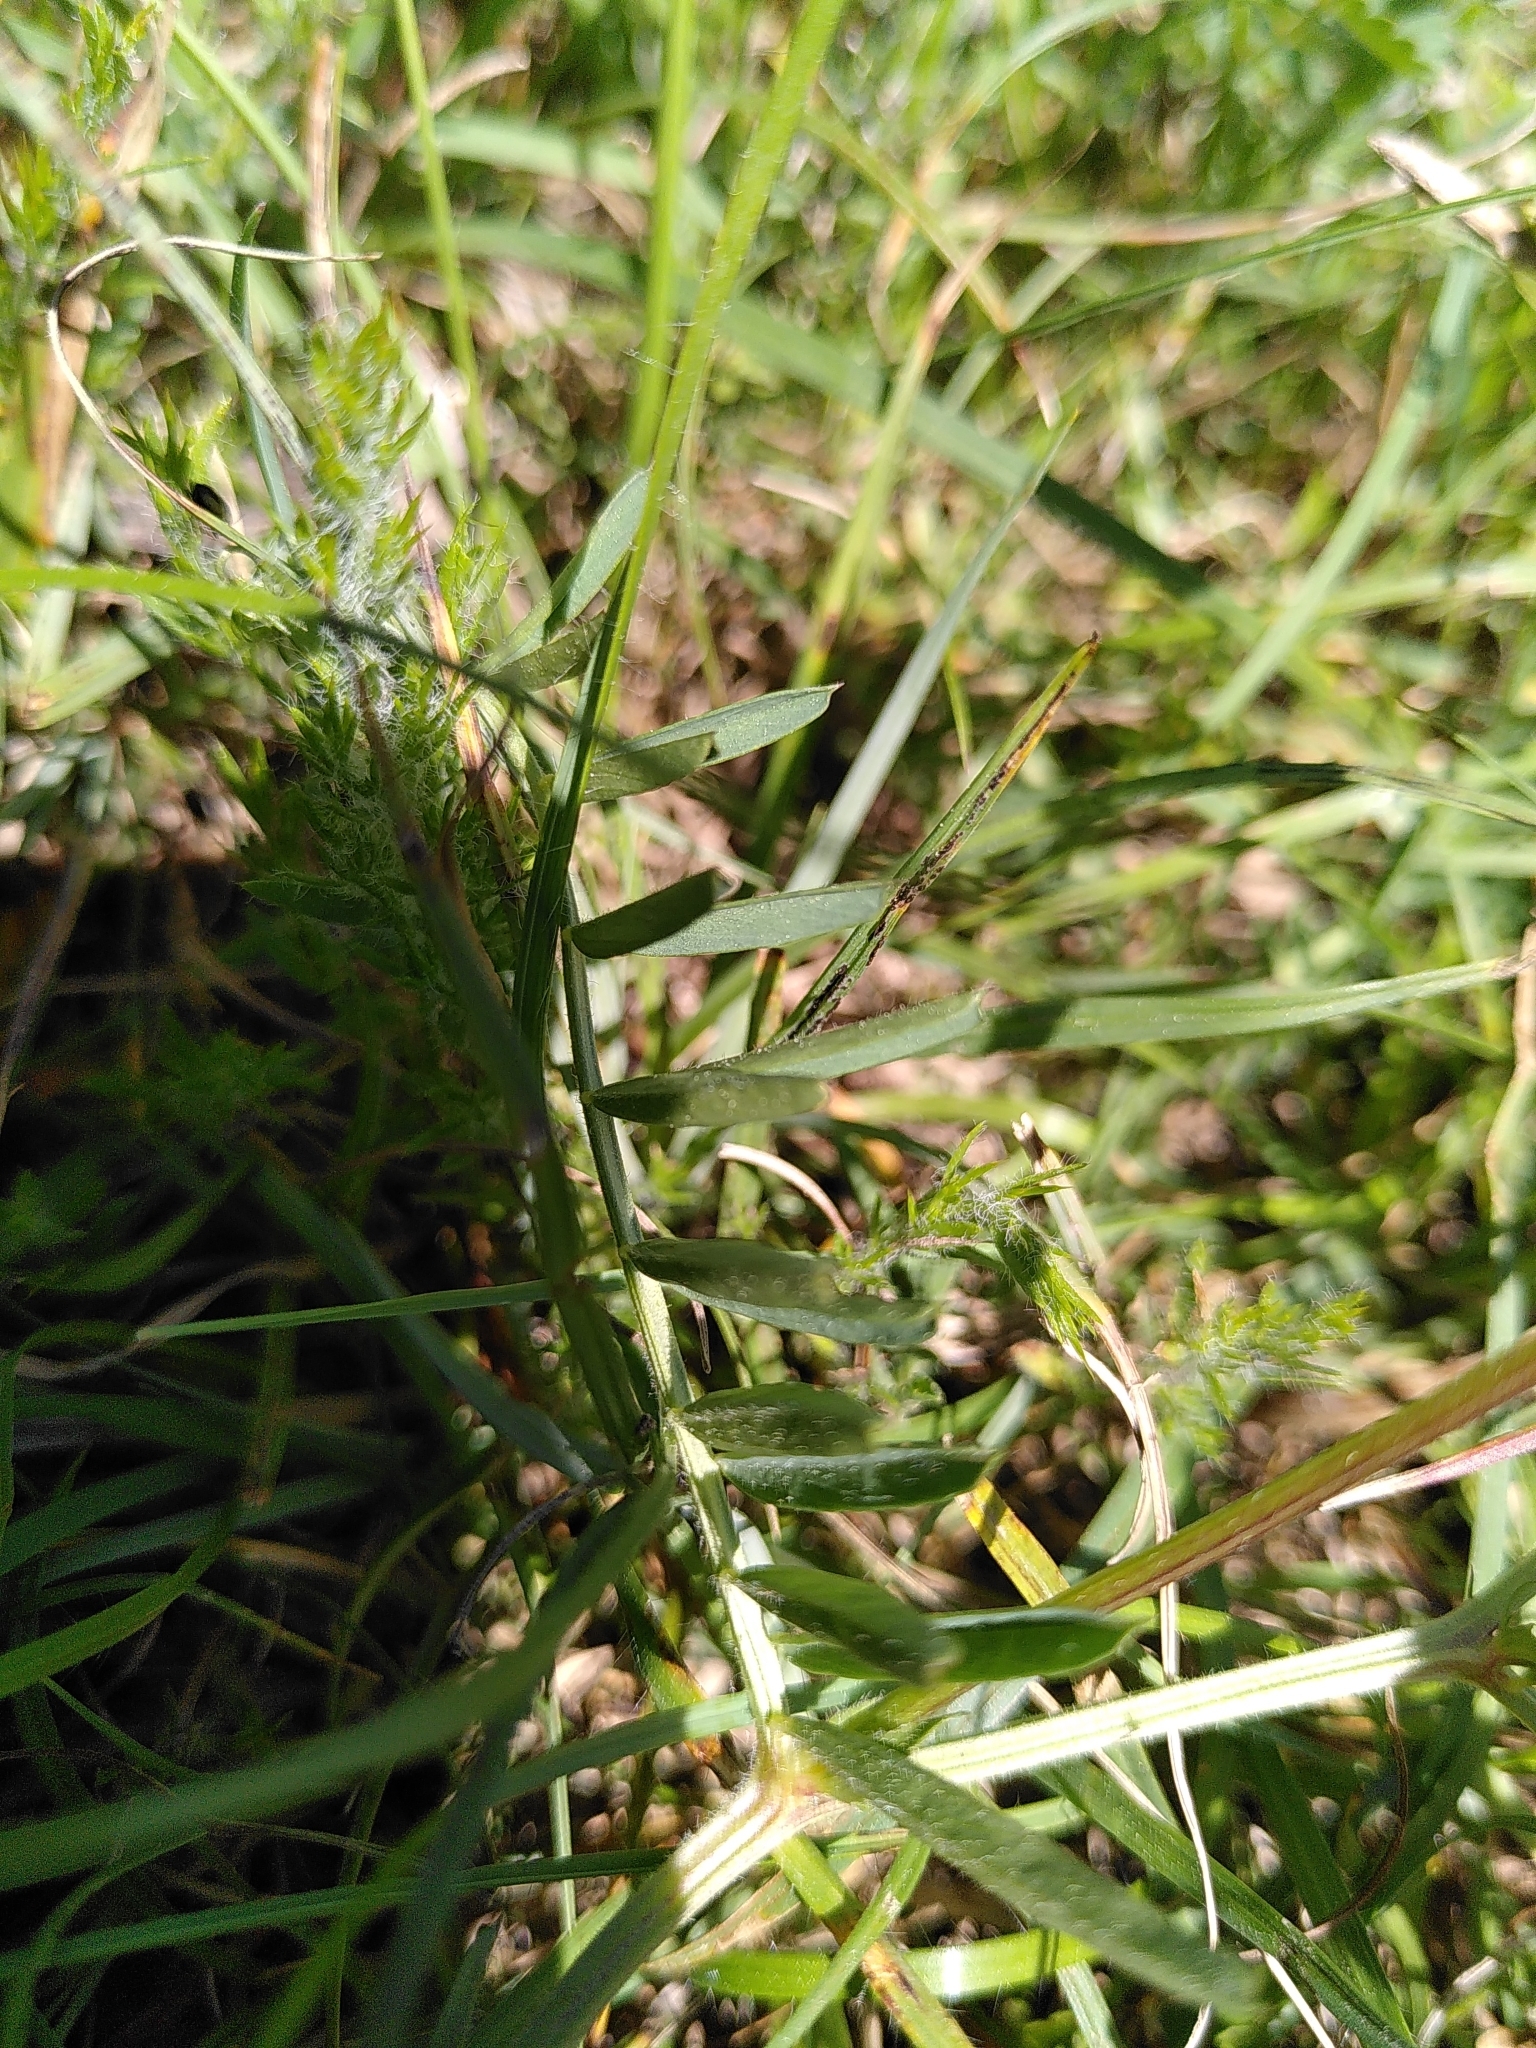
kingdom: Plantae
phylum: Tracheophyta
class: Magnoliopsida
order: Fabales
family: Fabaceae
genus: Vicia
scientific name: Vicia onobrychioides
